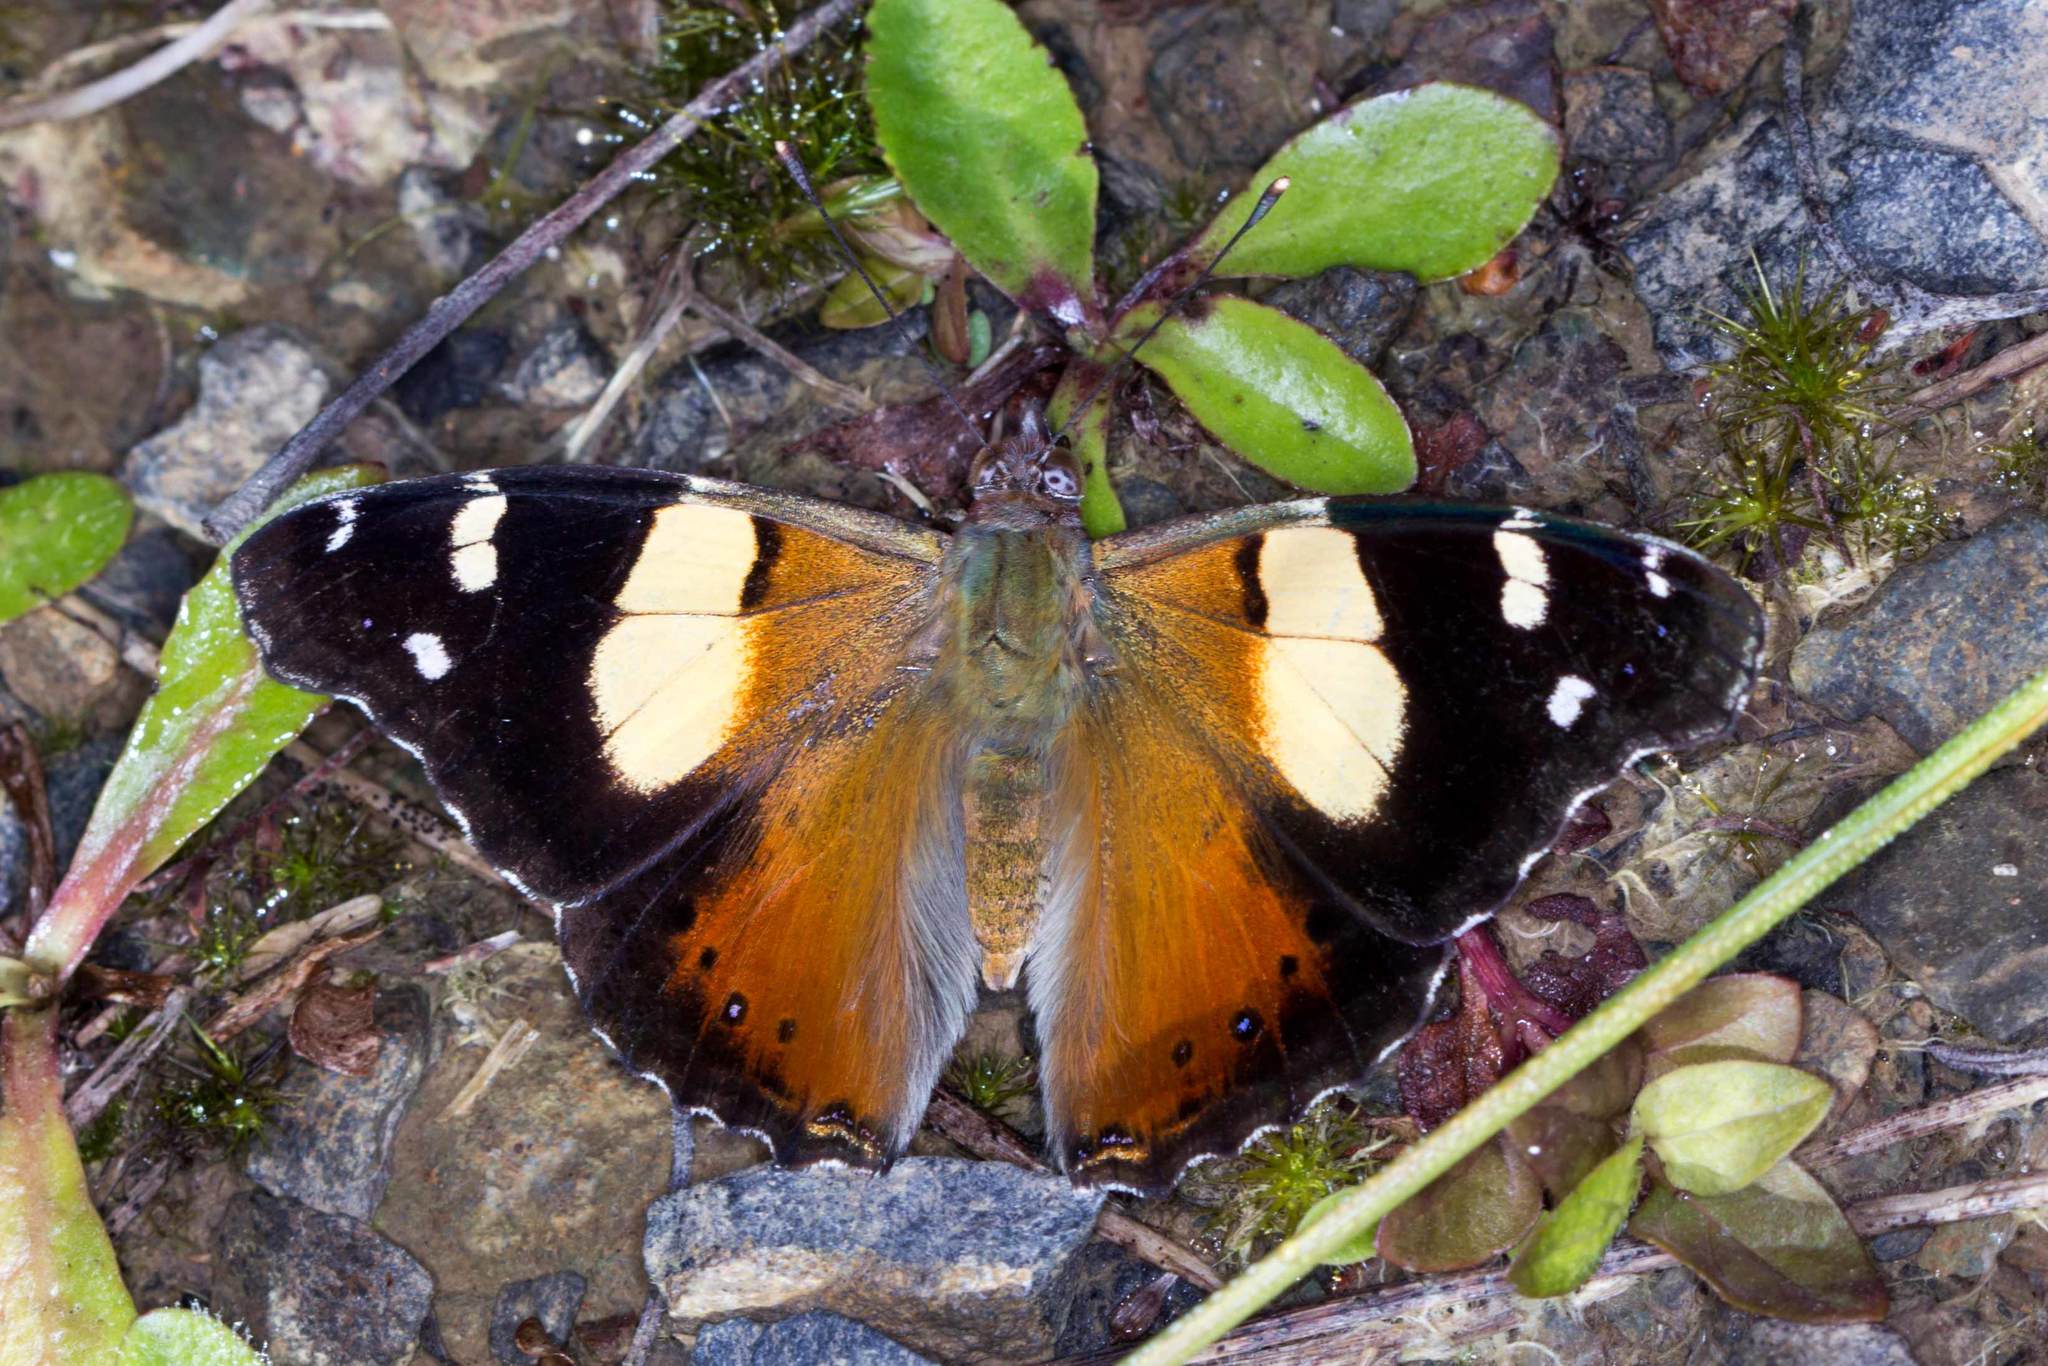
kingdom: Animalia
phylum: Arthropoda
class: Insecta
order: Lepidoptera
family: Nymphalidae
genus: Vanessa
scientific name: Vanessa itea
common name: Yellow admiral
